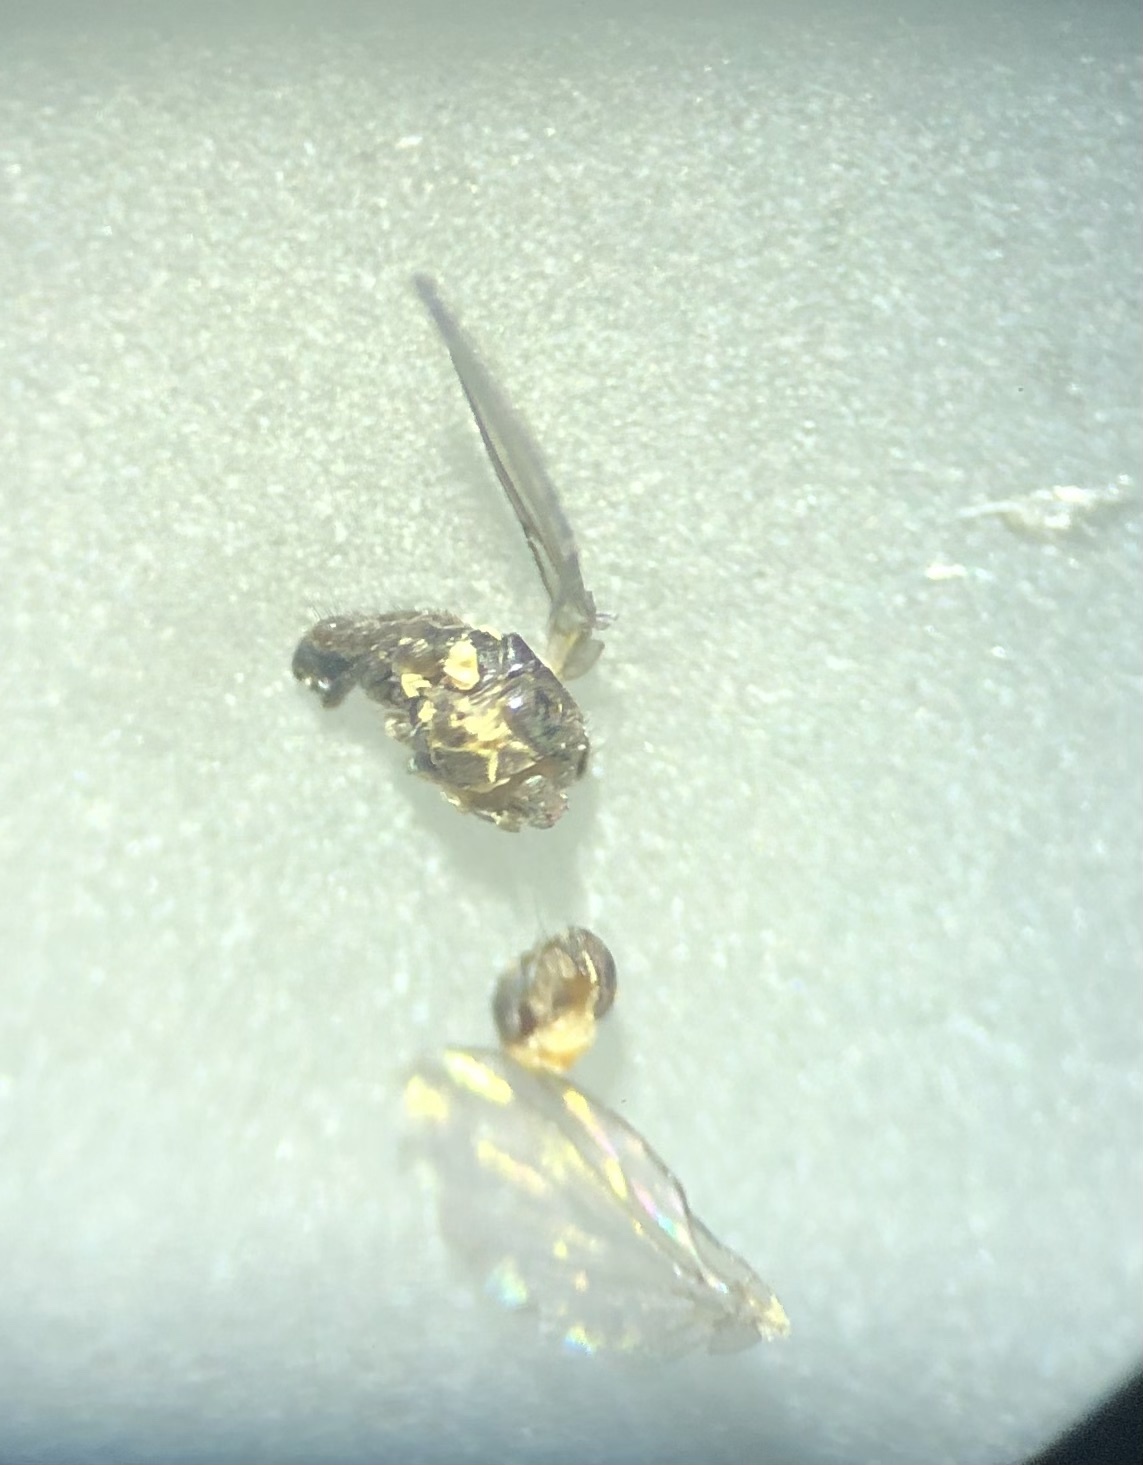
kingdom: Animalia
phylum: Arthropoda
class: Insecta
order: Diptera
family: Agromyzidae
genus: Phytomyza
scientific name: Phytomyza palmeri
